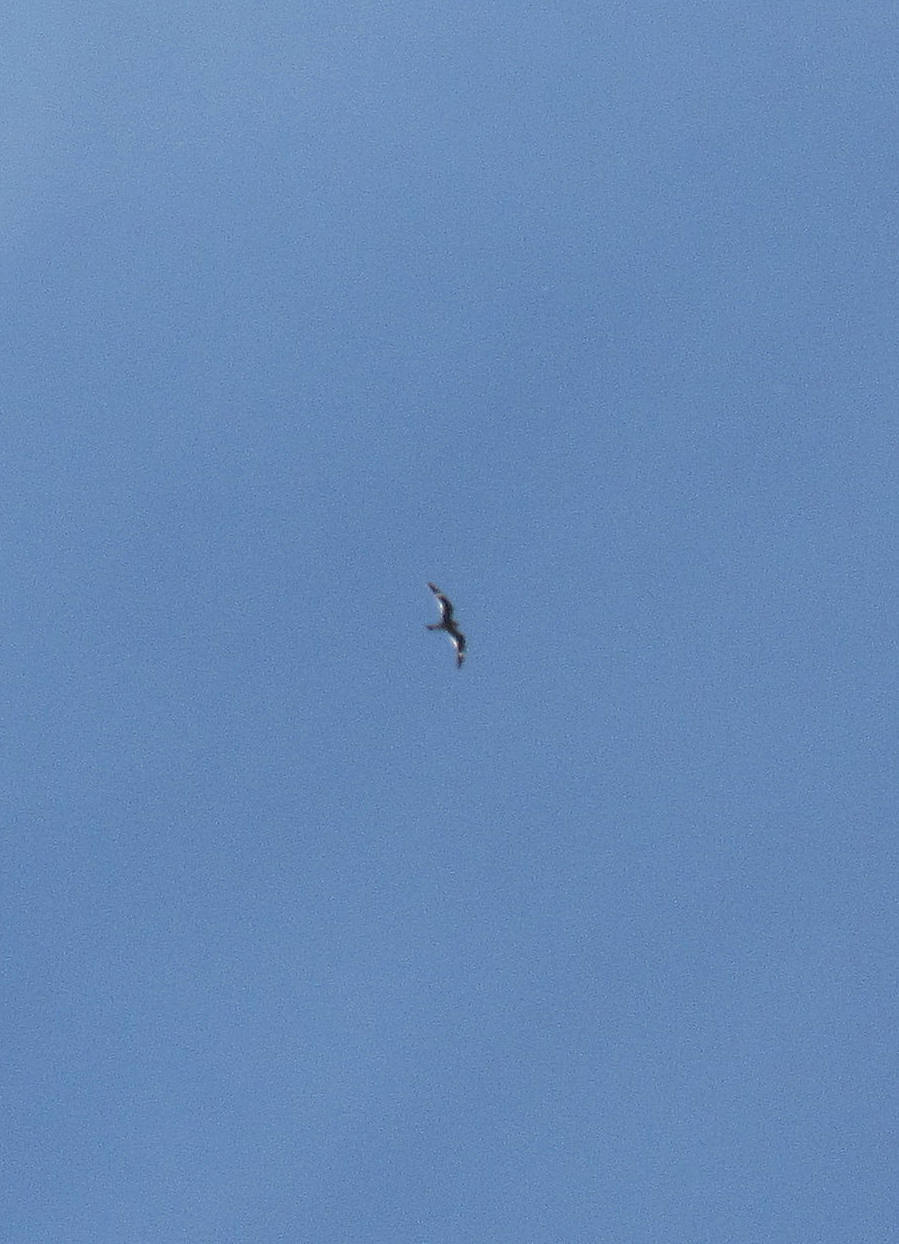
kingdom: Animalia
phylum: Chordata
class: Aves
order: Caprimulgiformes
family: Caprimulgidae
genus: Chordeiles
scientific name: Chordeiles minor
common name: Common nighthawk
